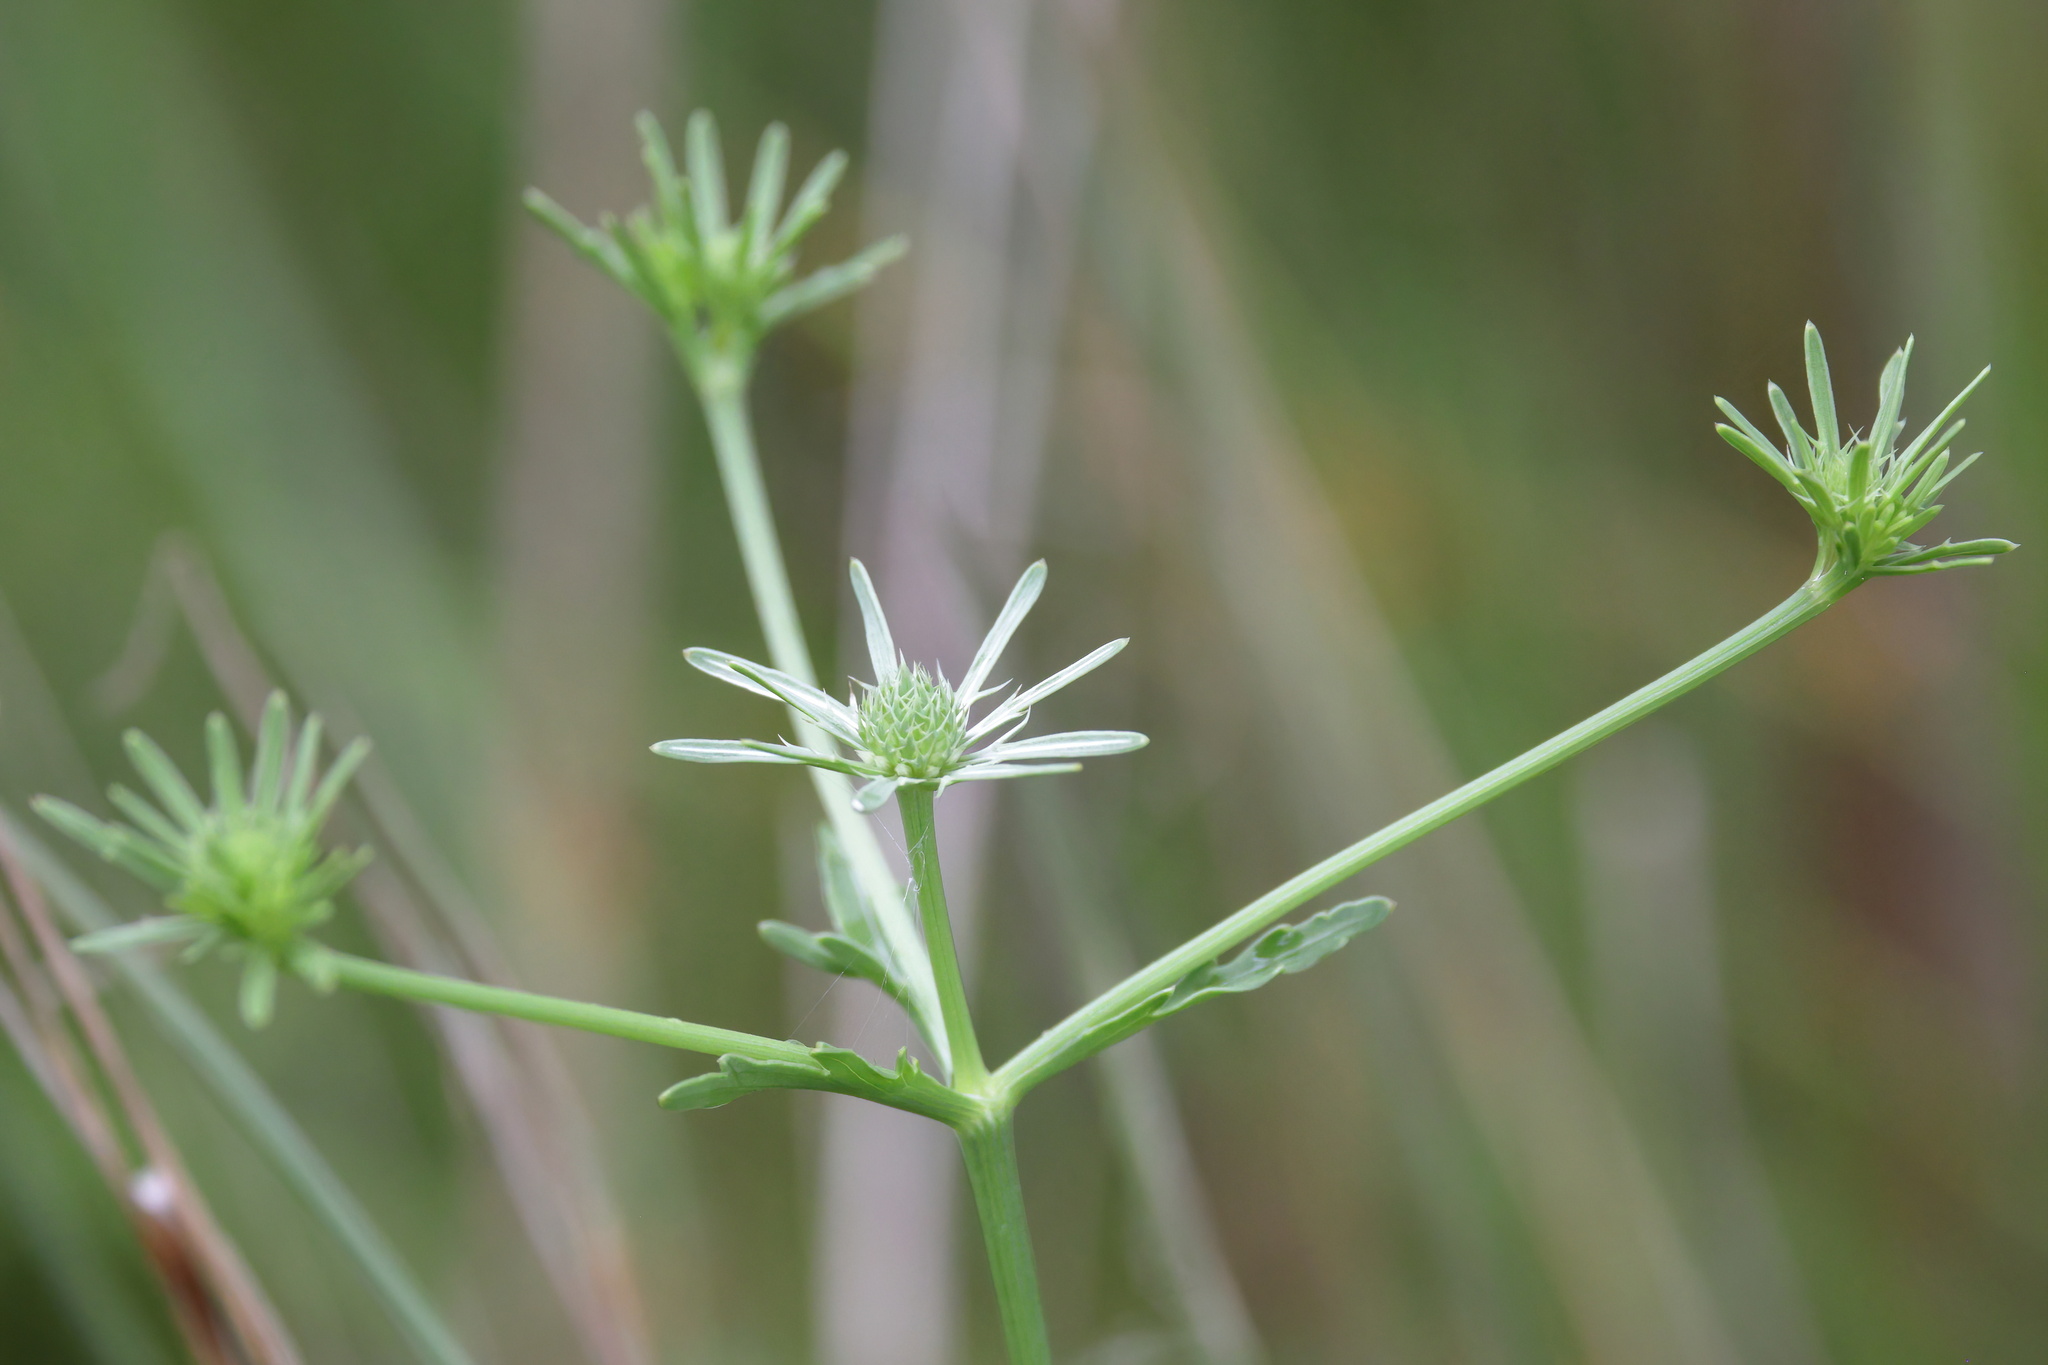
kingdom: Plantae
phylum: Tracheophyta
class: Magnoliopsida
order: Apiales
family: Apiaceae
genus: Eryngium
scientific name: Eryngium integrifolium
